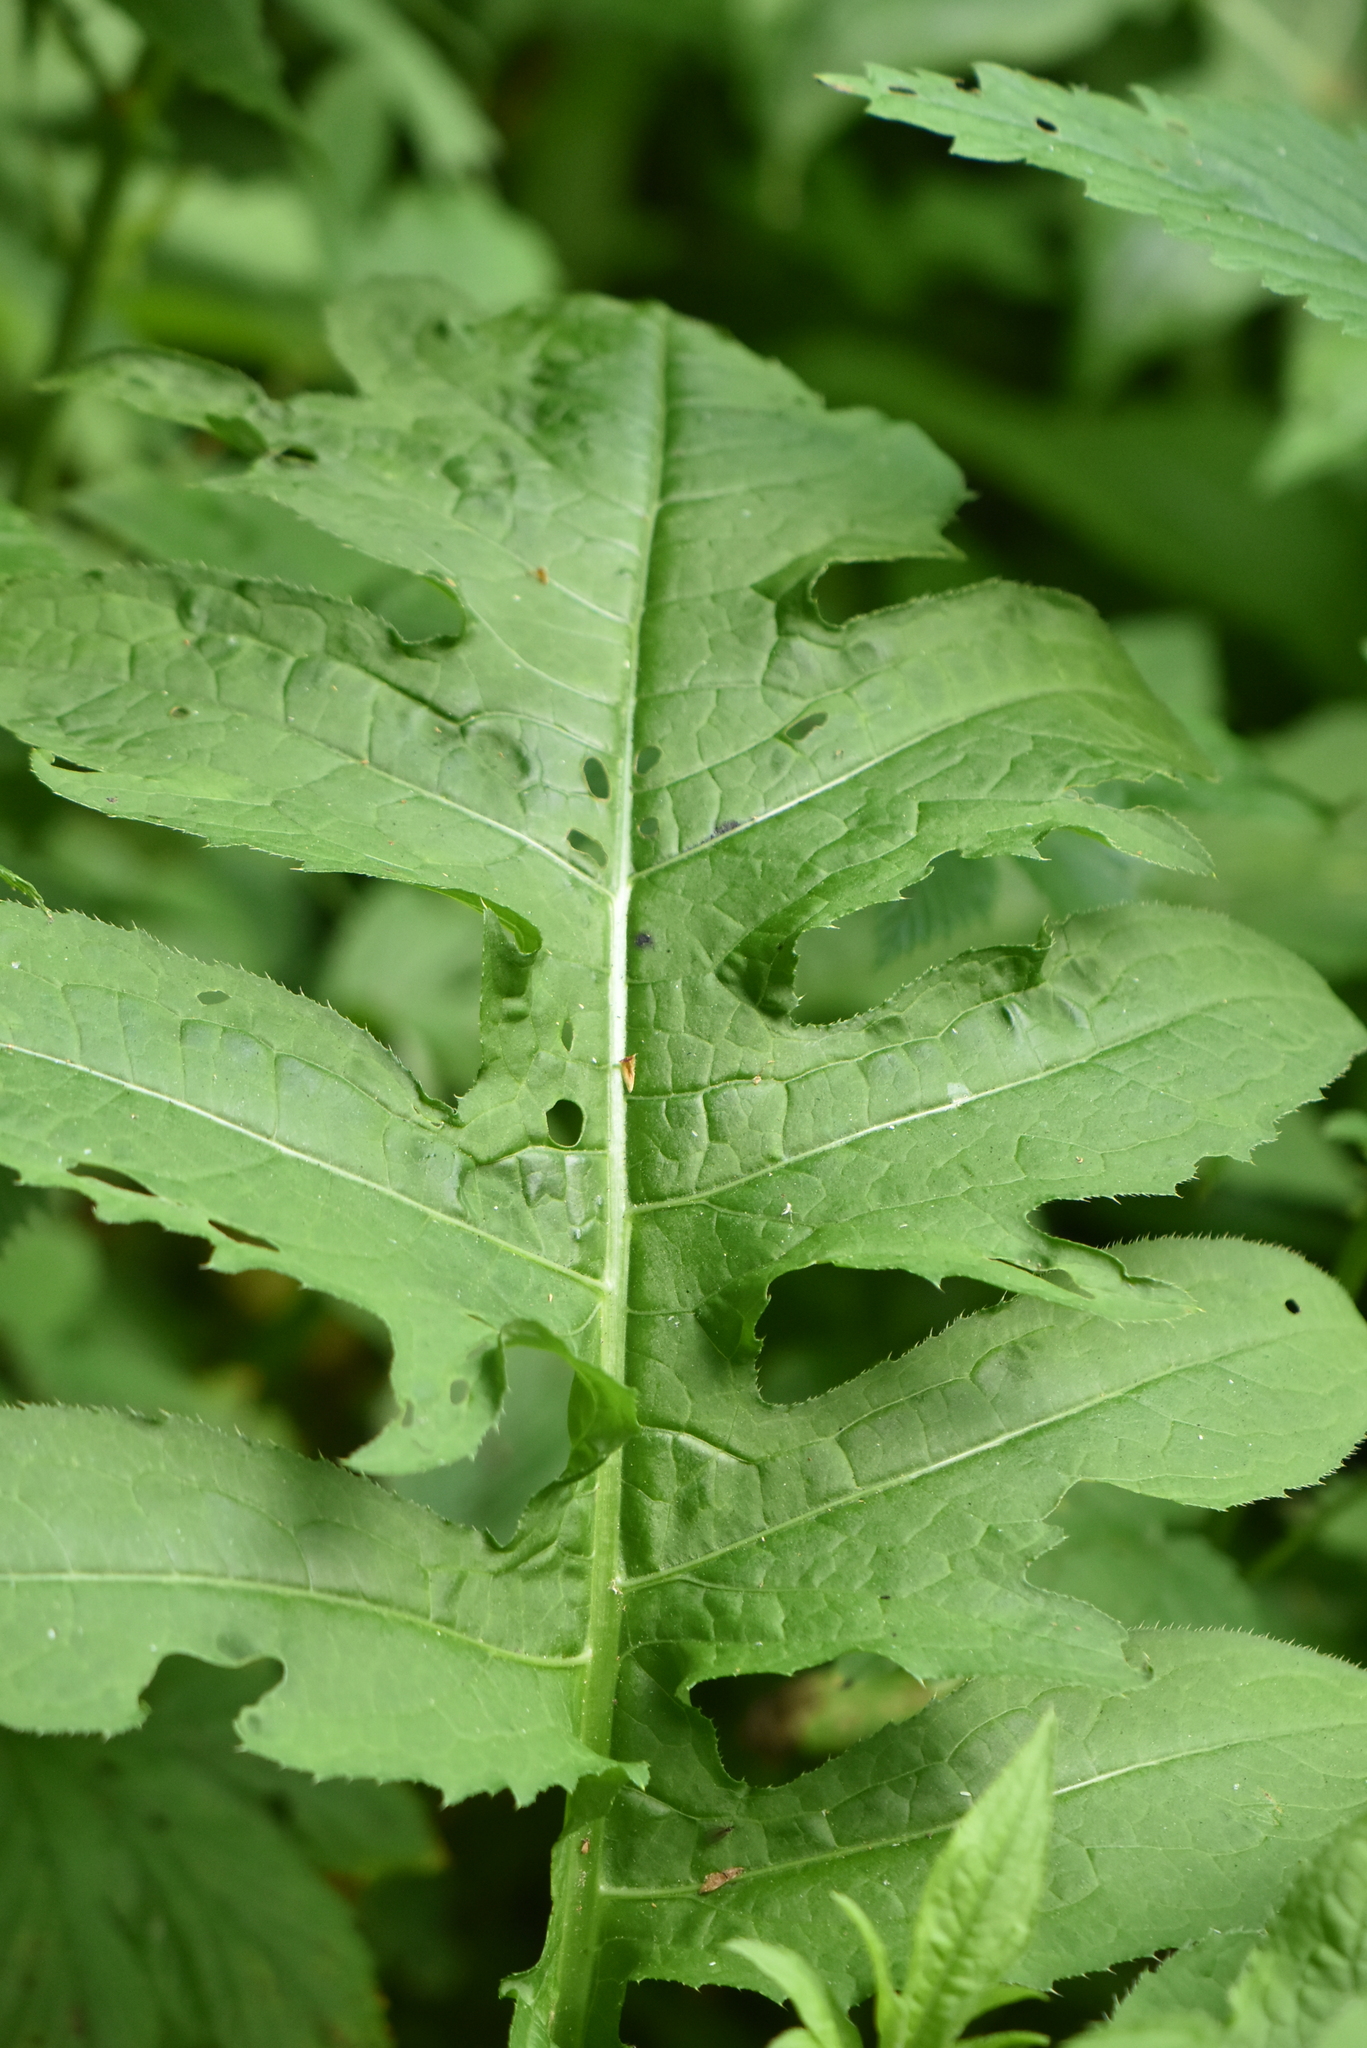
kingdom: Plantae
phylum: Tracheophyta
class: Magnoliopsida
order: Asterales
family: Asteraceae
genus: Cirsium
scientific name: Cirsium oleraceum
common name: Cabbage thistle
